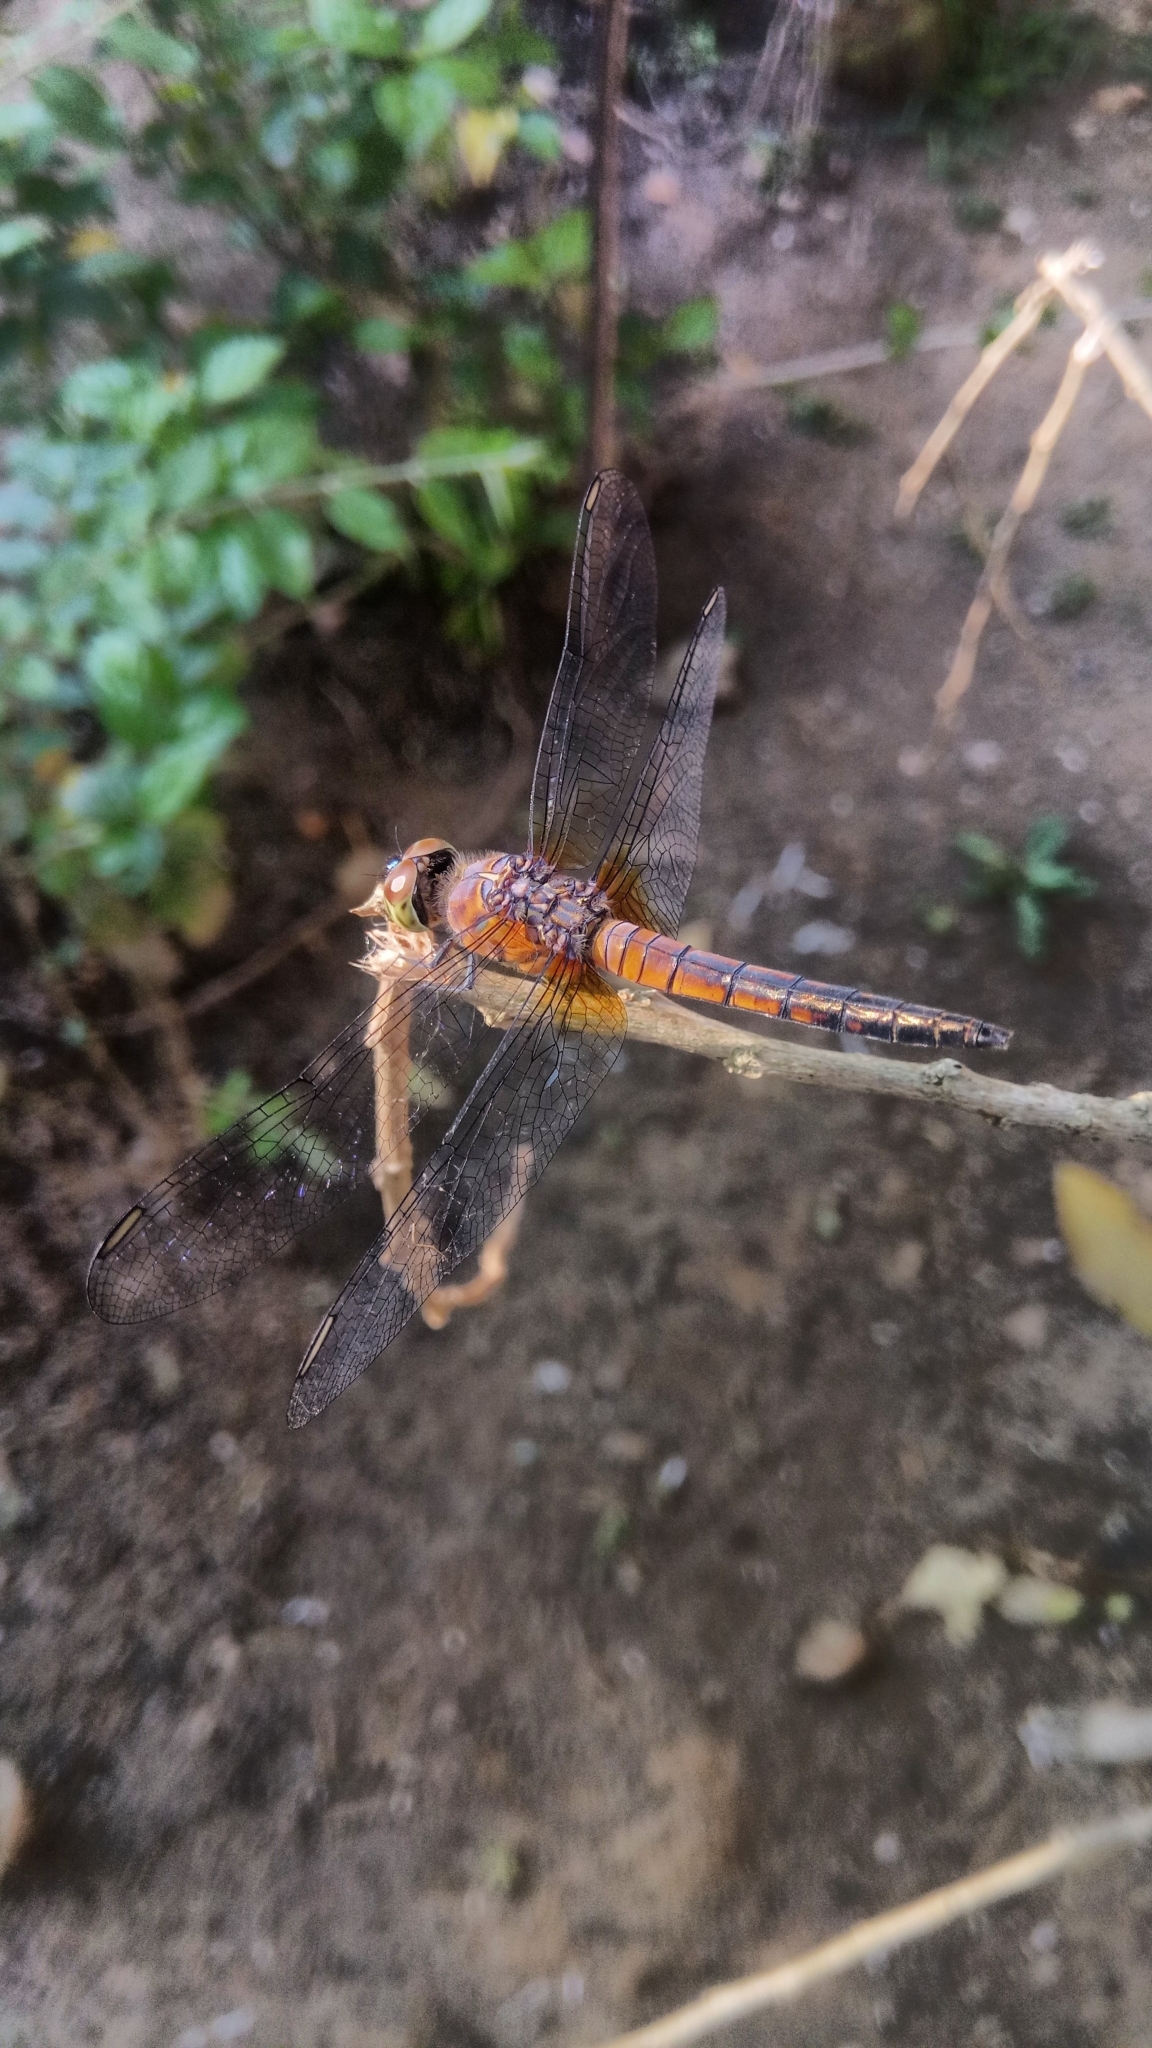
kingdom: Animalia
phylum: Arthropoda
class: Insecta
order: Odonata
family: Libellulidae
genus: Brachydiplax
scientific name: Brachydiplax chalybea
